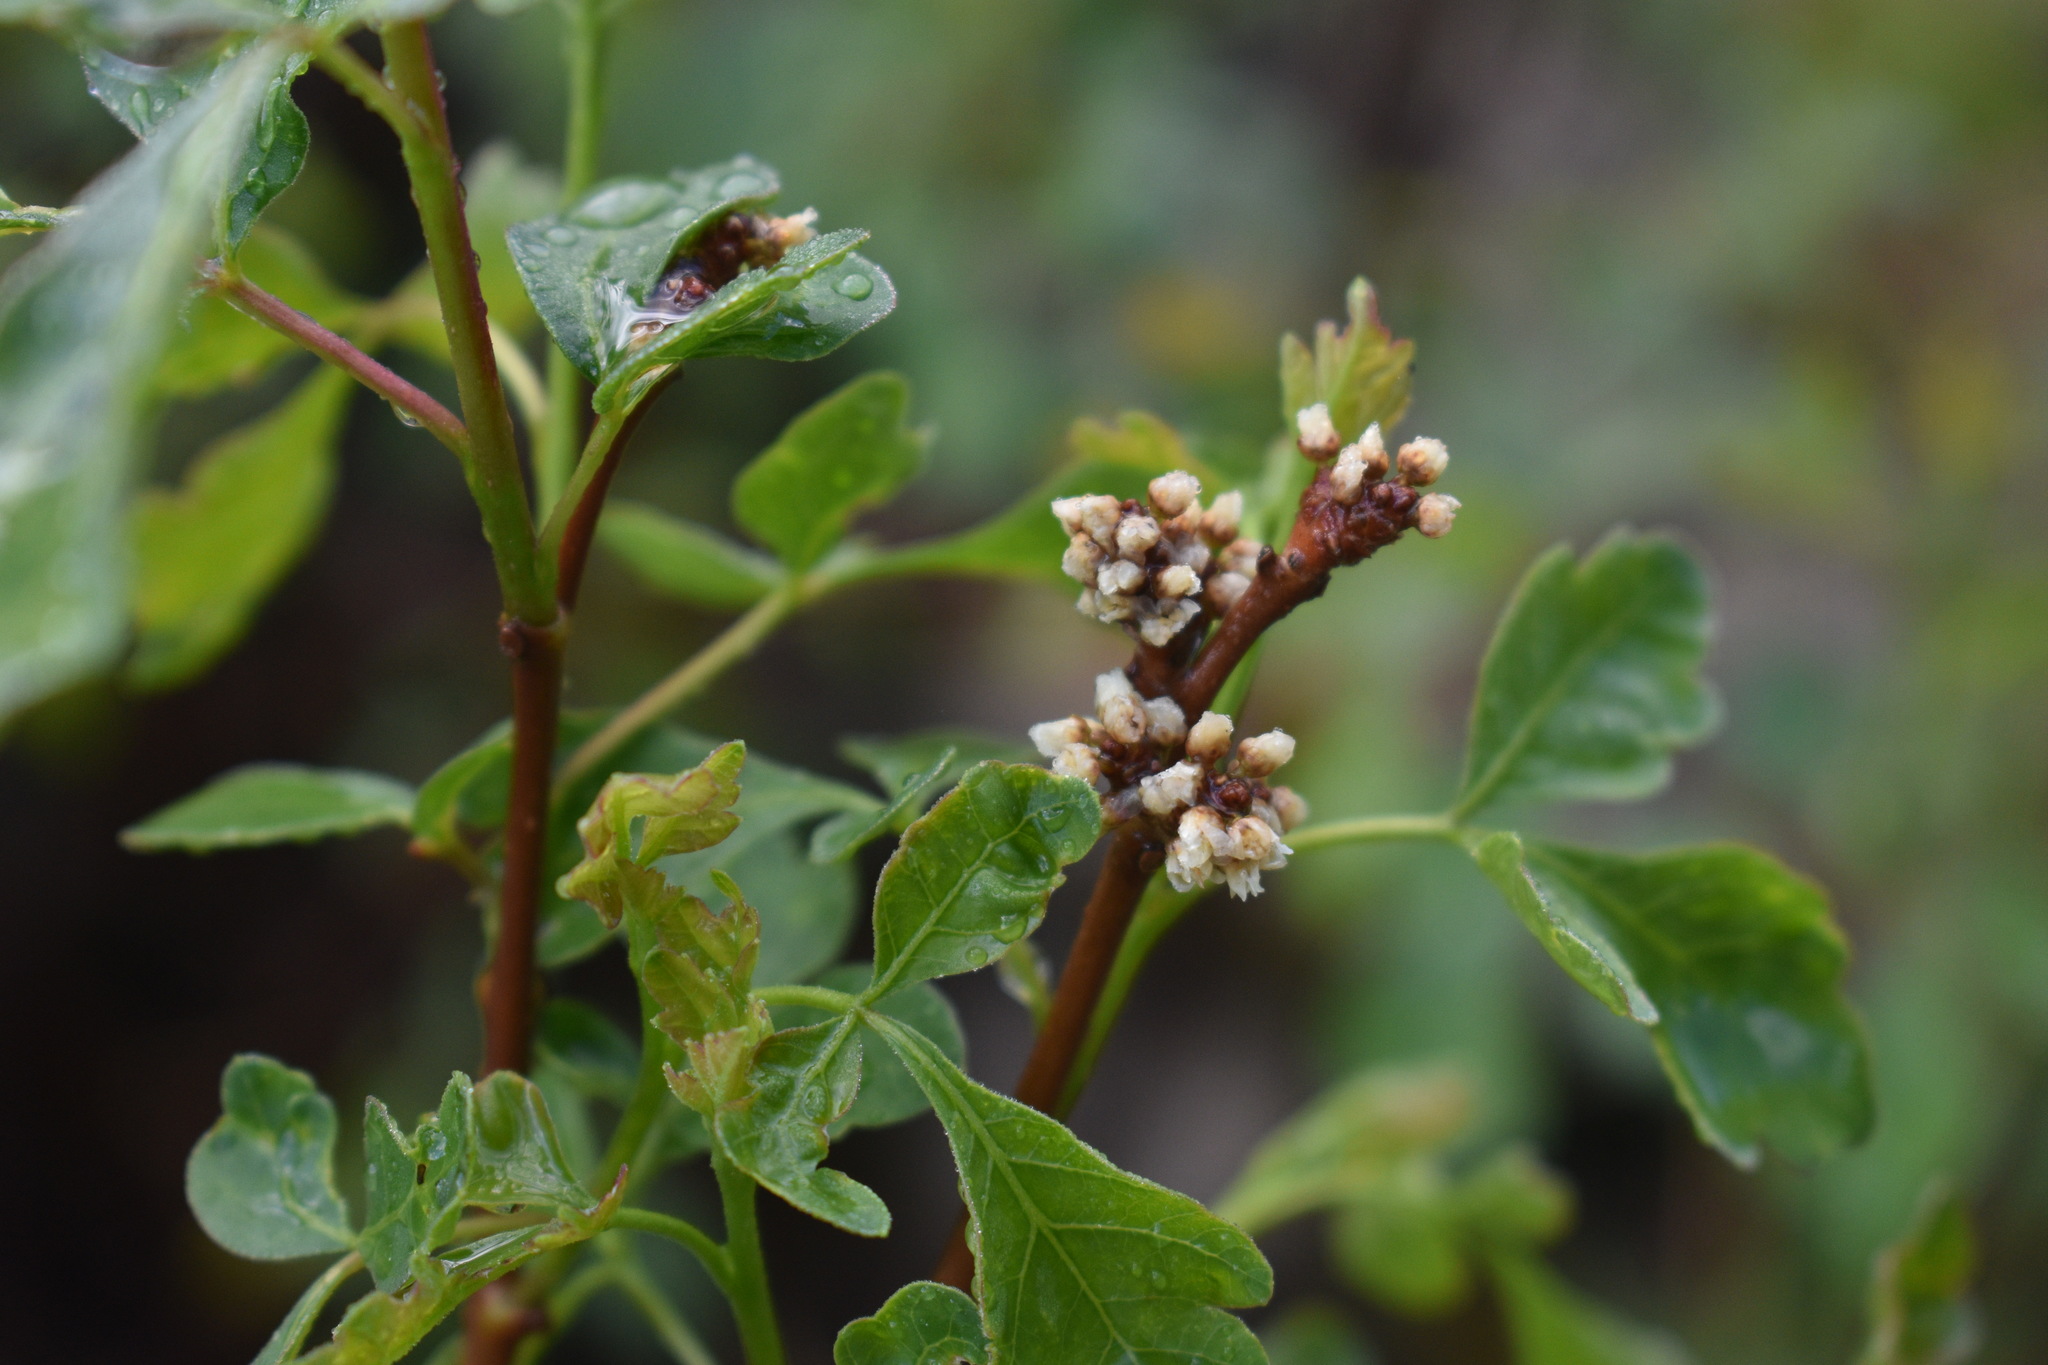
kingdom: Plantae
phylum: Tracheophyta
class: Magnoliopsida
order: Sapindales
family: Anacardiaceae
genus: Rhus
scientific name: Rhus aromatica
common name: Aromatic sumac
